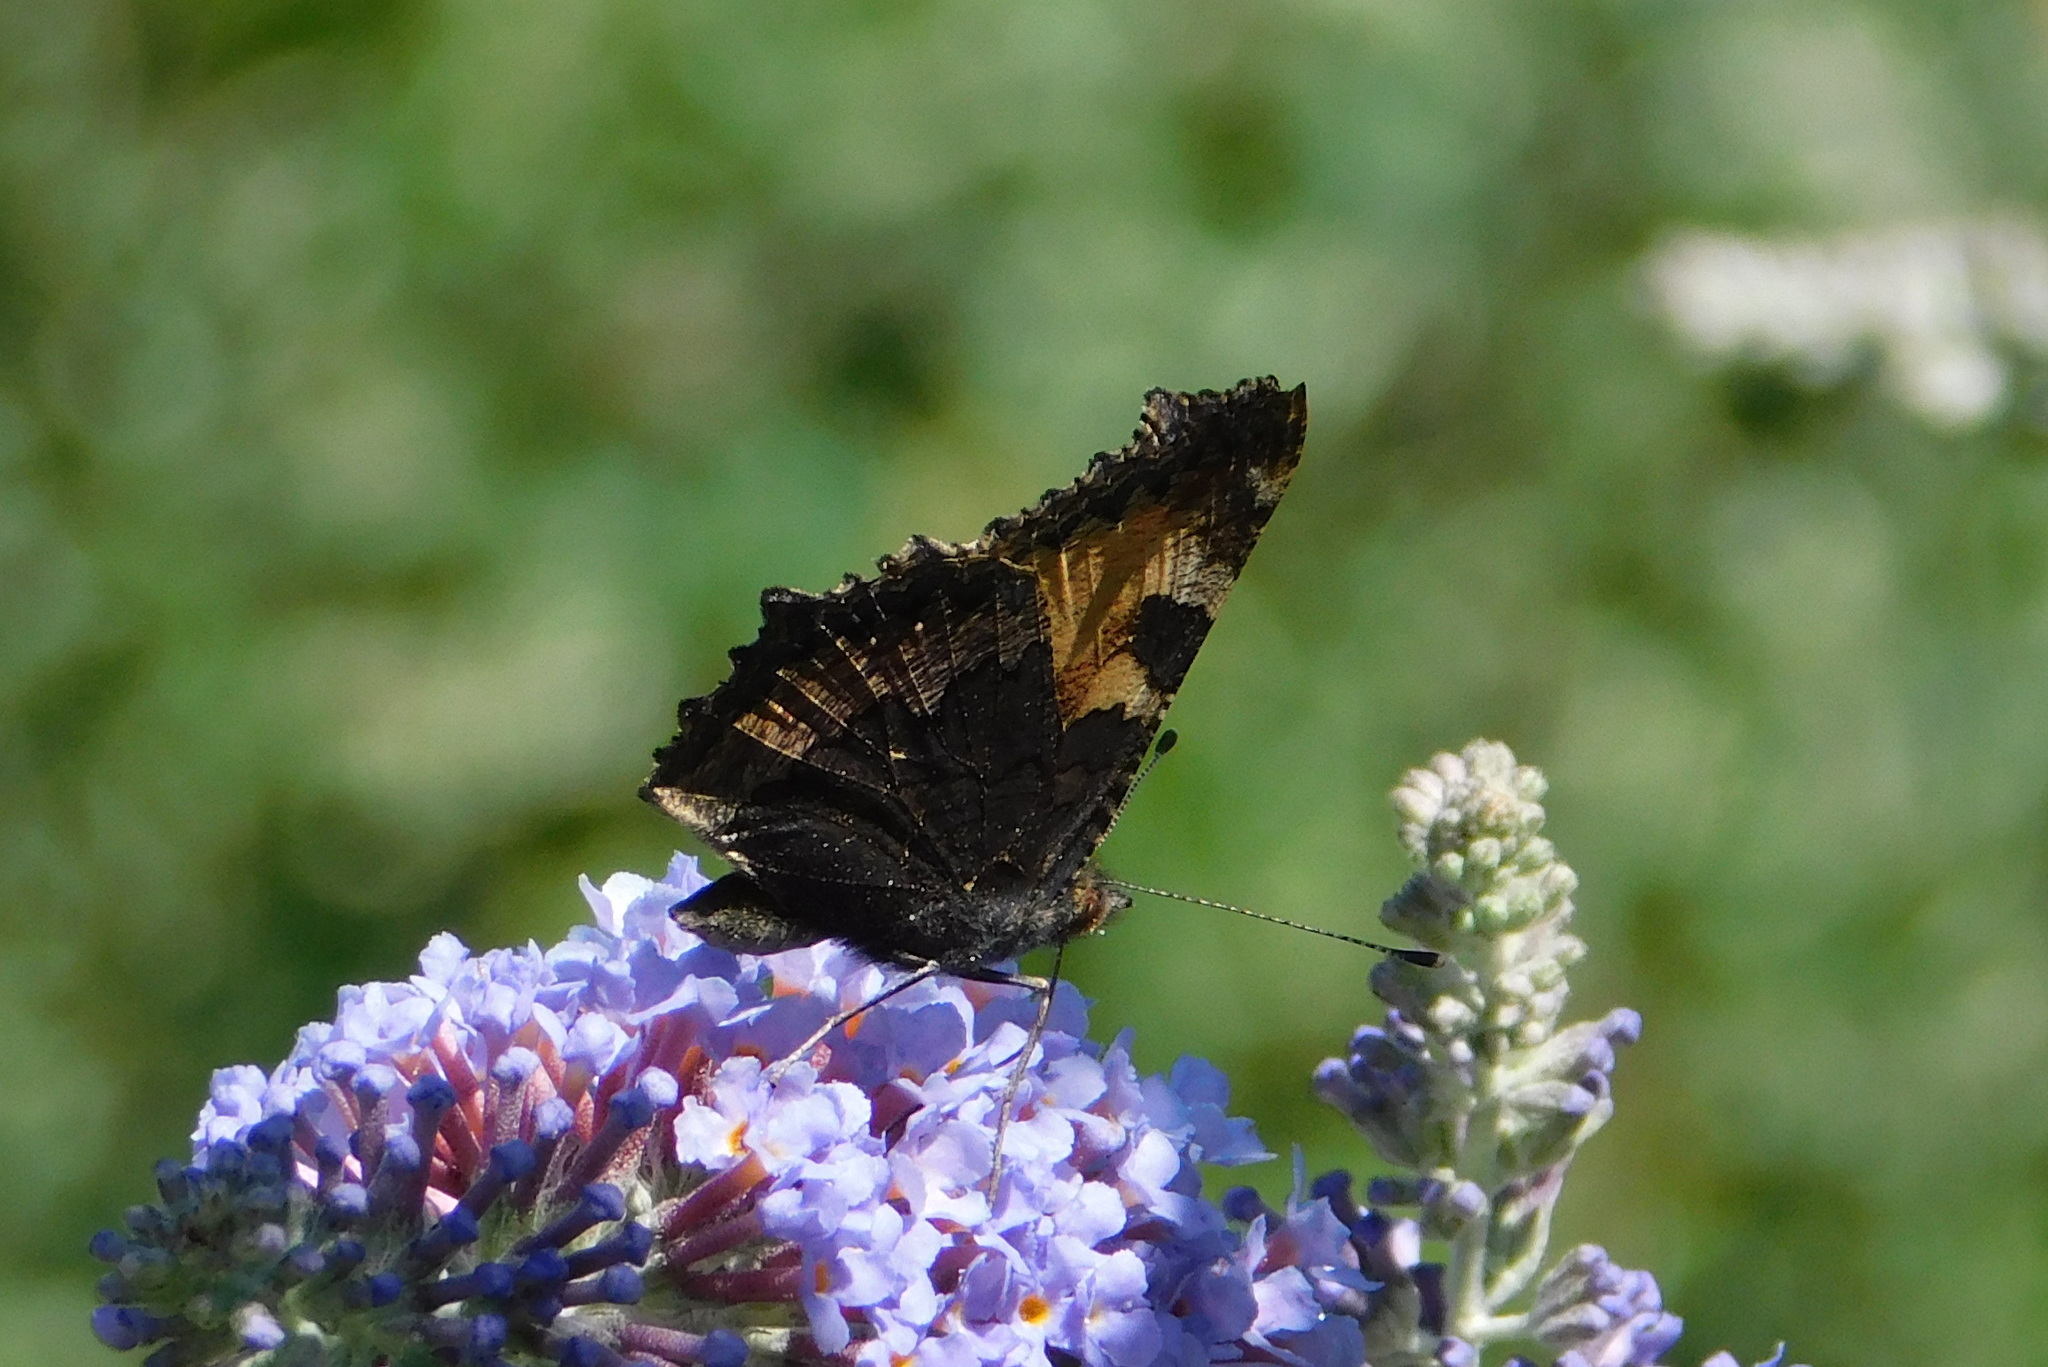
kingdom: Animalia
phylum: Arthropoda
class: Insecta
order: Lepidoptera
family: Nymphalidae
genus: Aglais
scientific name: Aglais urticae
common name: Small tortoiseshell
